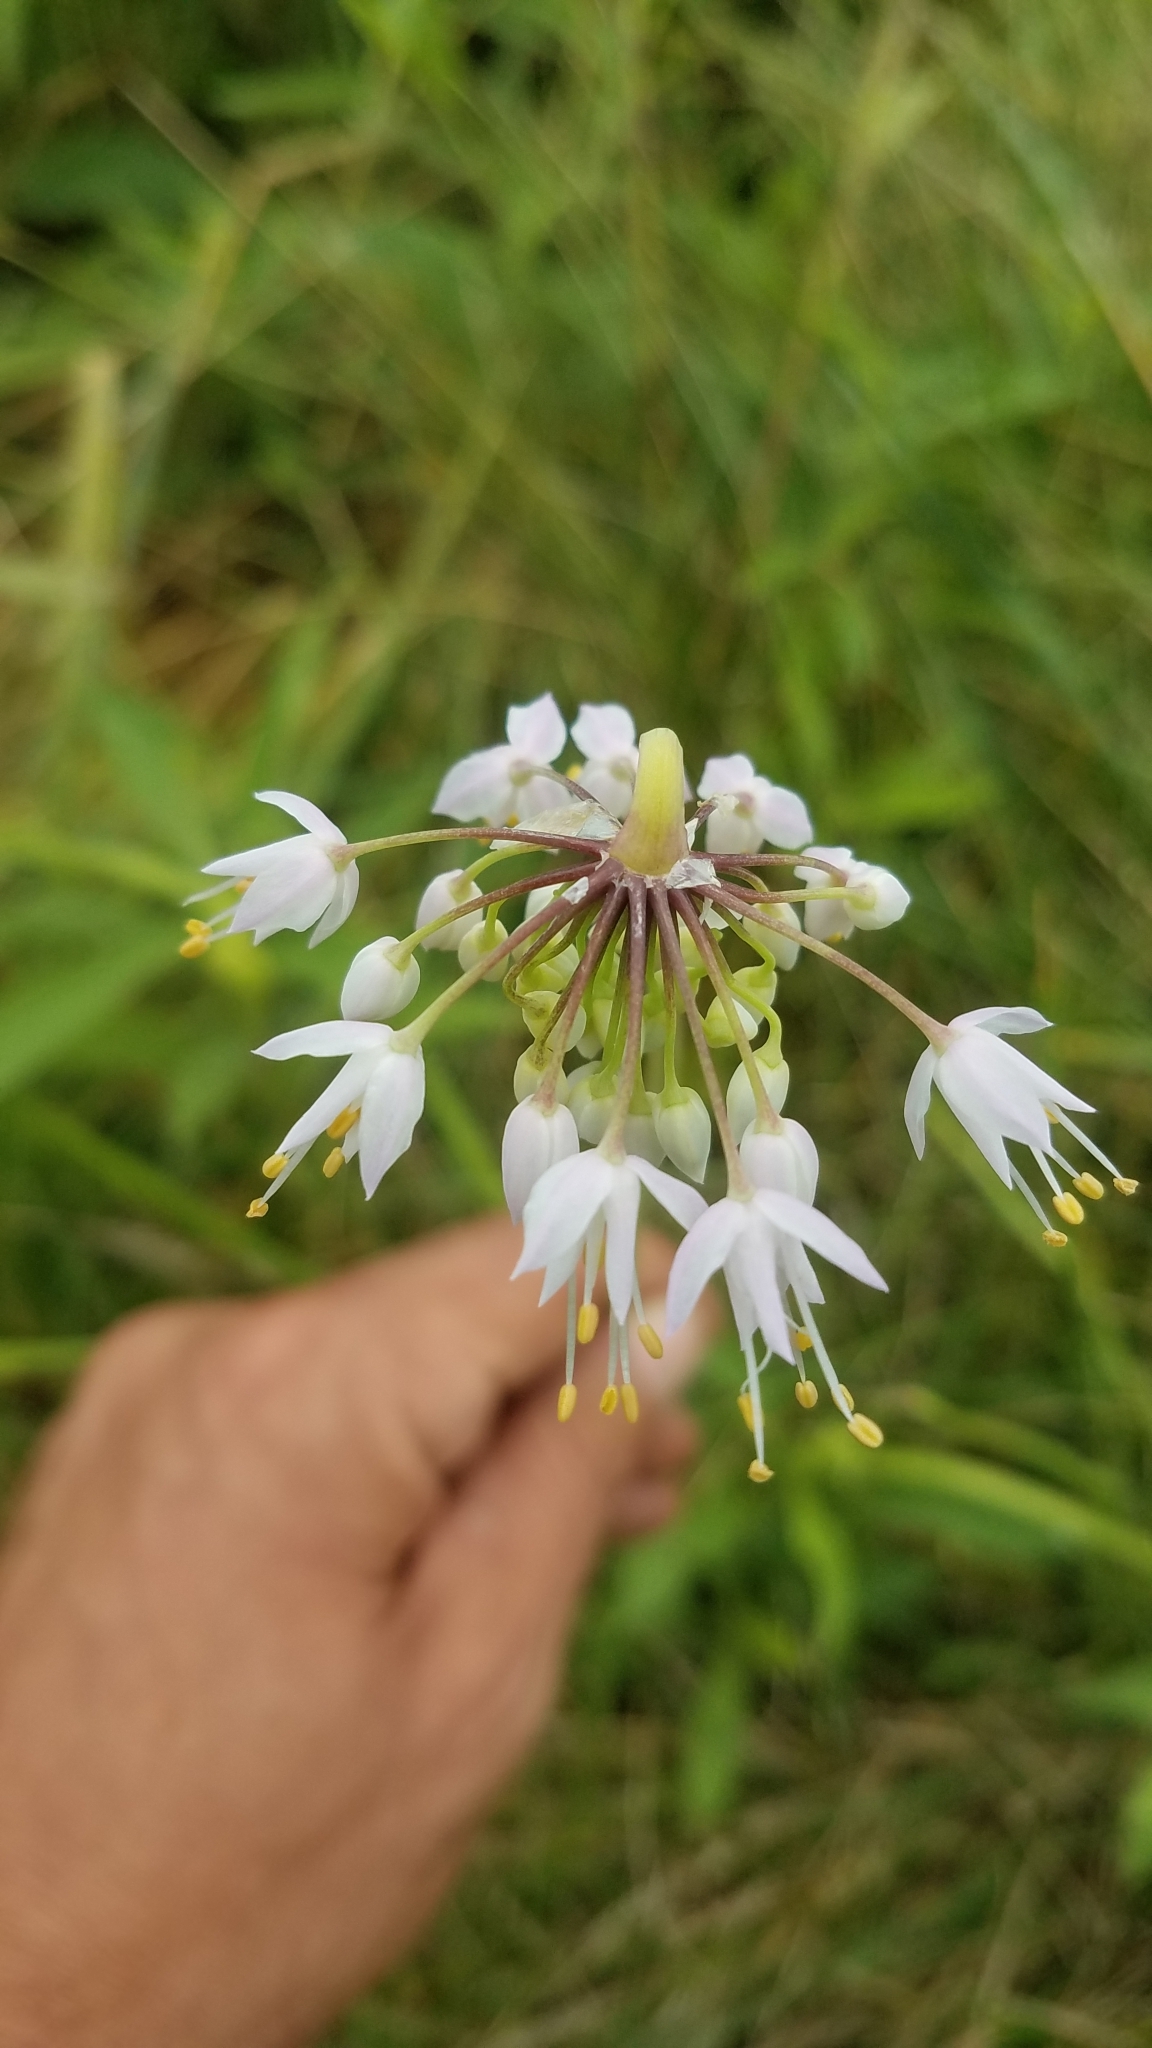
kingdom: Plantae
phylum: Tracheophyta
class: Liliopsida
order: Asparagales
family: Amaryllidaceae
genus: Allium
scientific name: Allium cernuum
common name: Nodding onion
